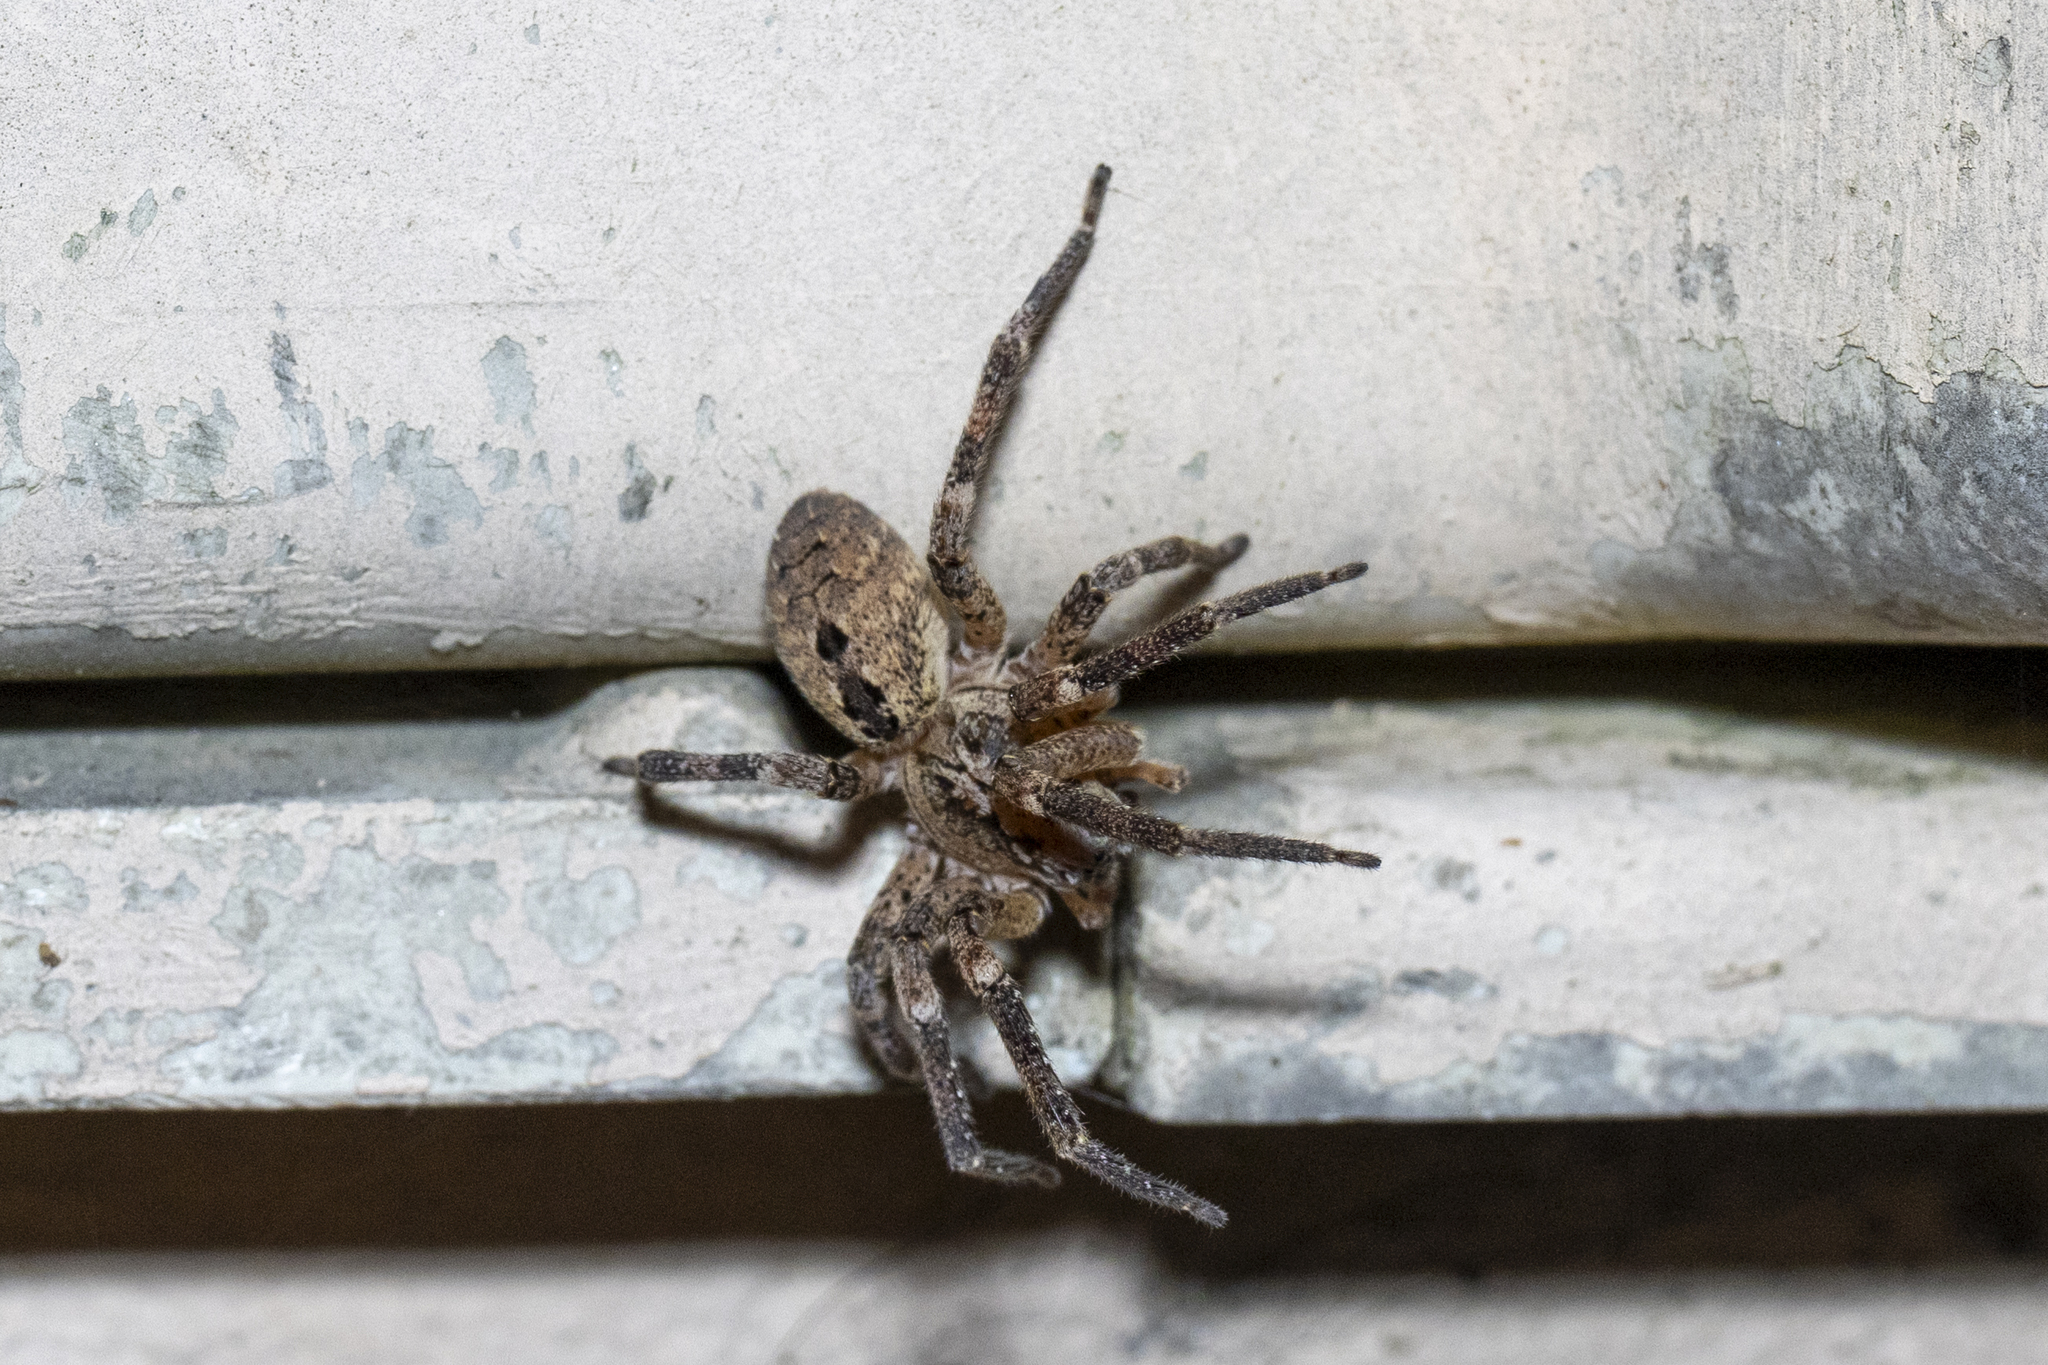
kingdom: Animalia
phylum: Arthropoda
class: Arachnida
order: Araneae
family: Zoropsidae
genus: Zoropsis
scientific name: Zoropsis spinimana
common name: Zoropsid spider
